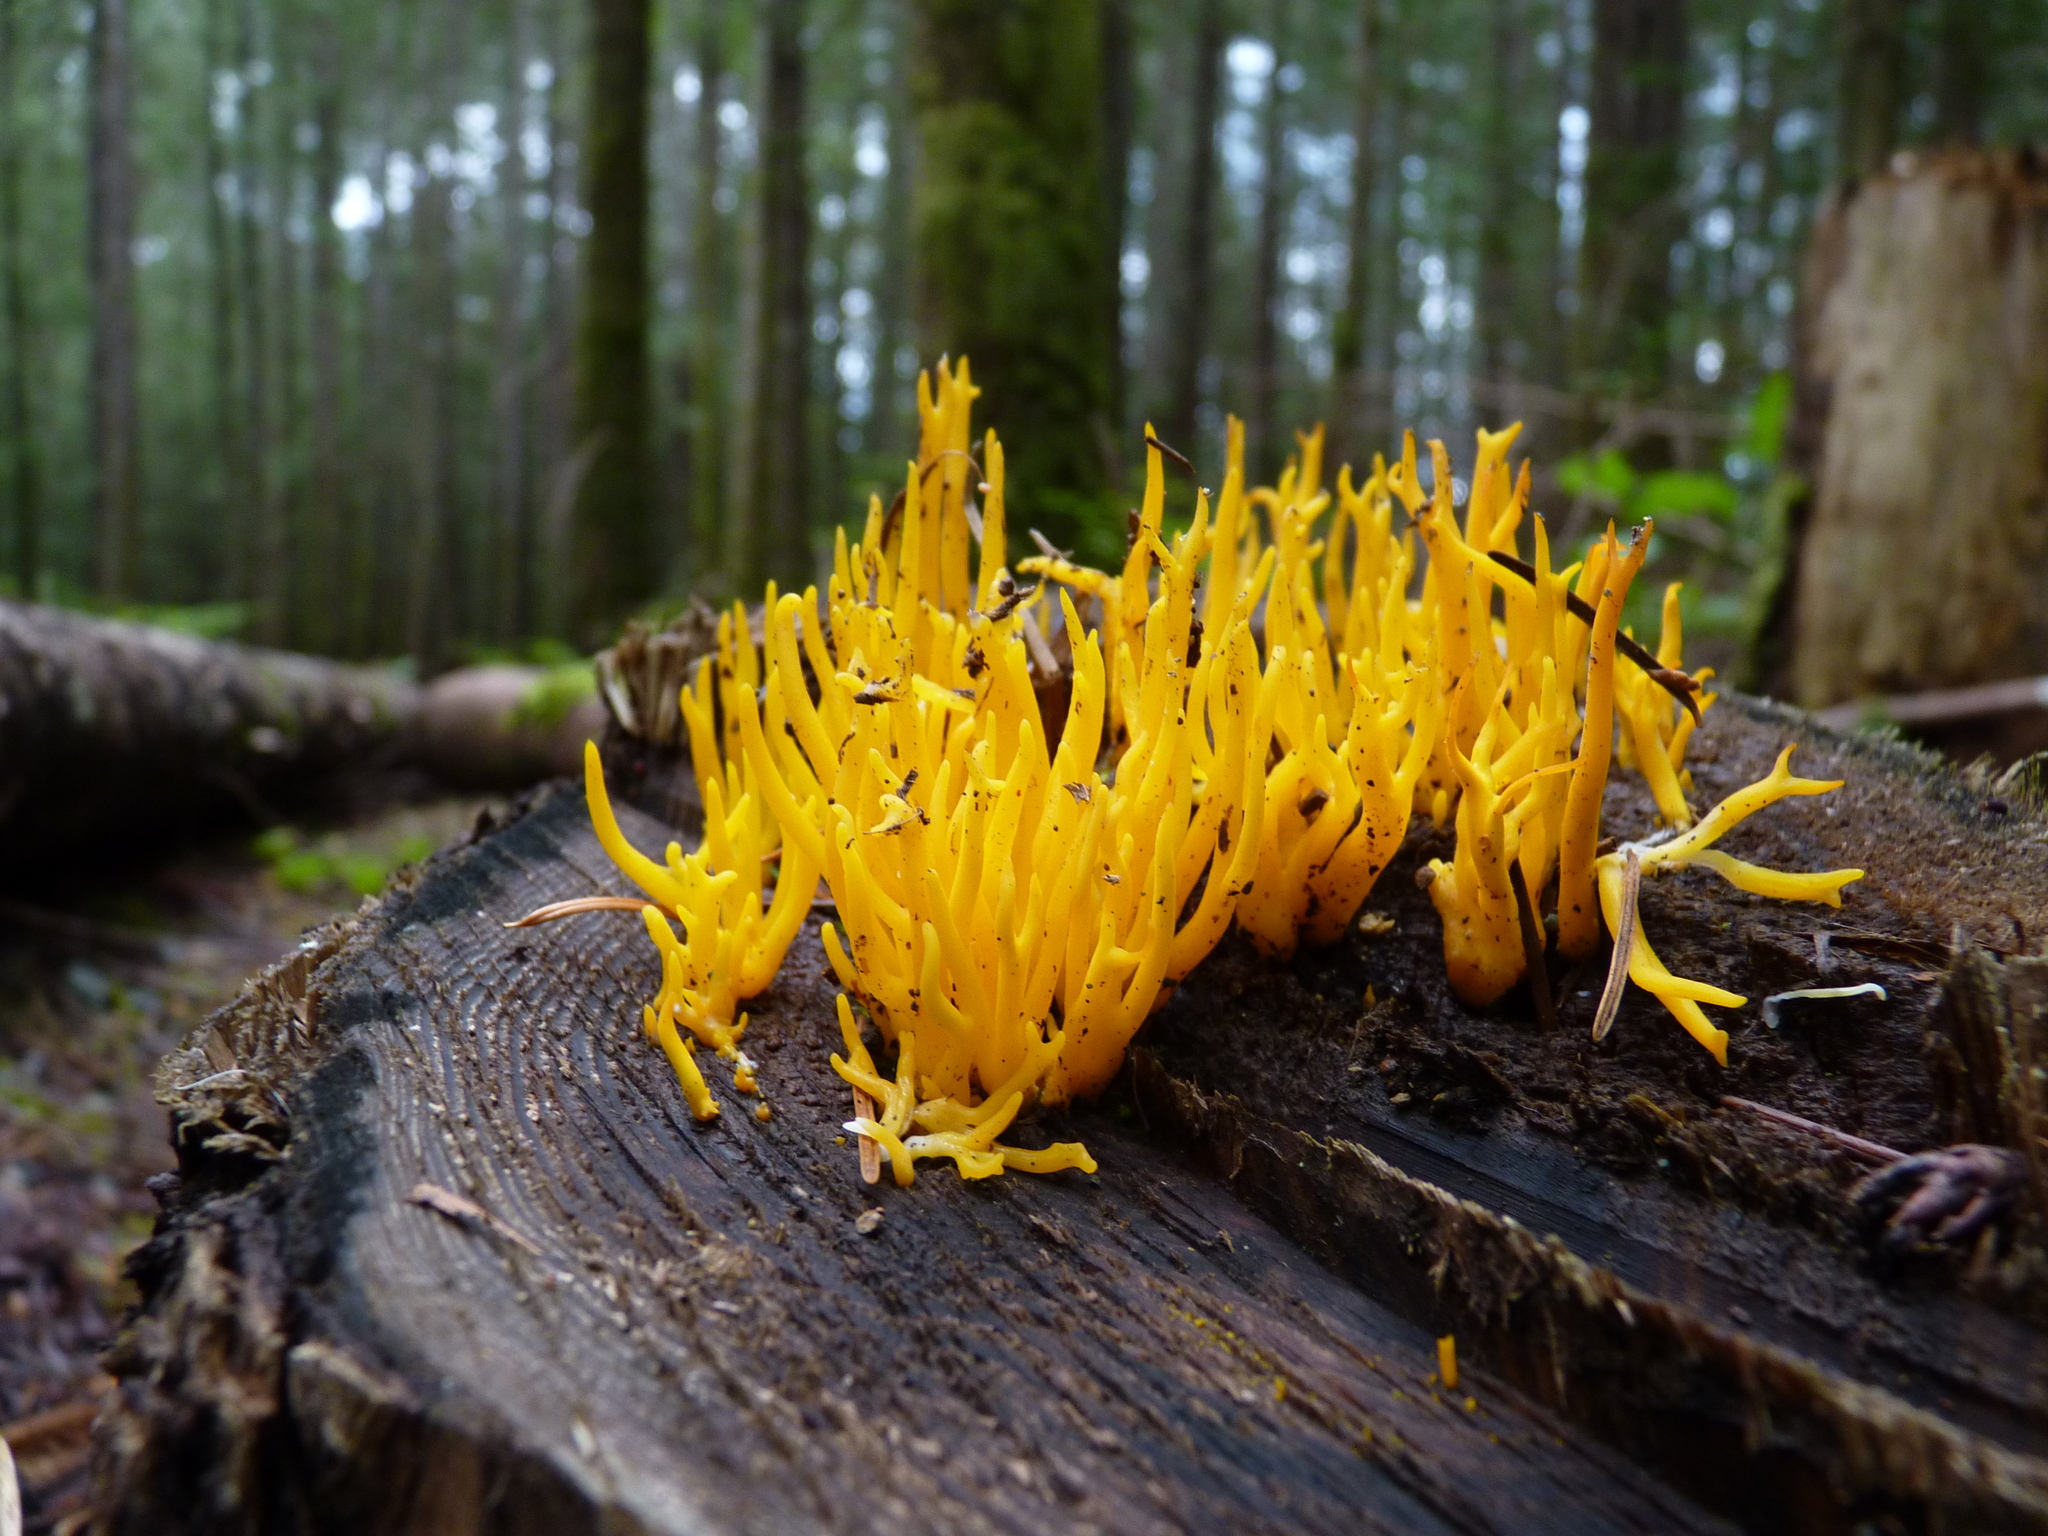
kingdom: Fungi
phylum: Basidiomycota
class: Dacrymycetes
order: Dacrymycetales
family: Dacrymycetaceae
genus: Calocera
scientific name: Calocera viscosa
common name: Yellow stagshorn
